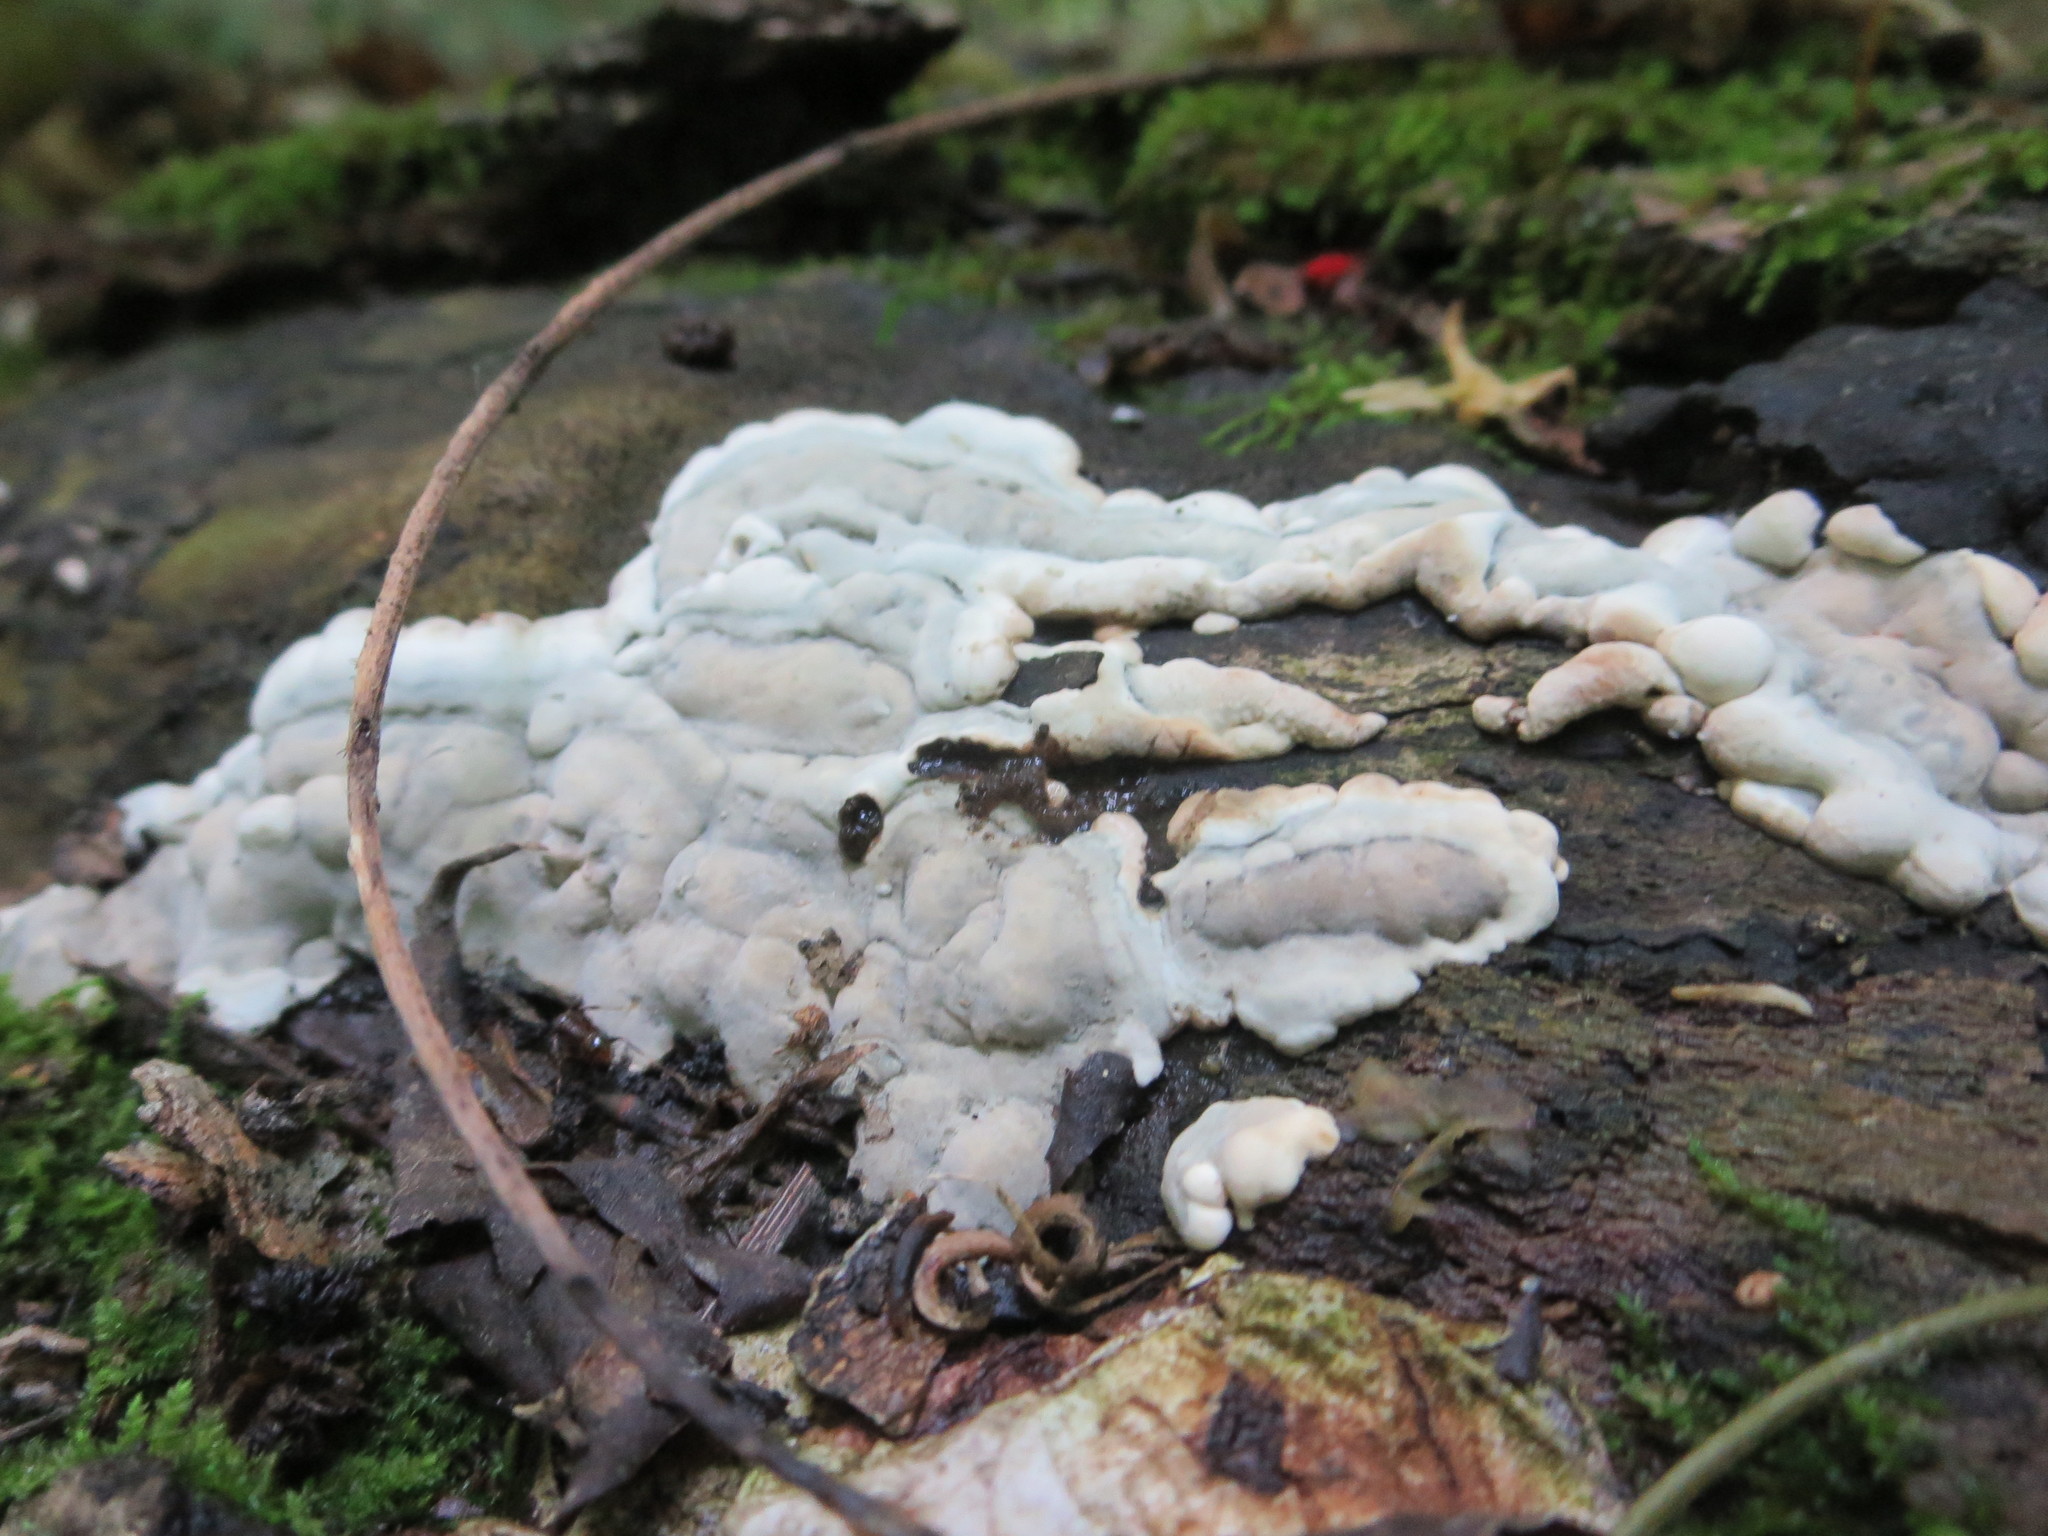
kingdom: Fungi
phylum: Ascomycota
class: Sordariomycetes
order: Xylariales
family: Xylariaceae
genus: Kretzschmaria
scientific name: Kretzschmaria deusta
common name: Brittle cinder
